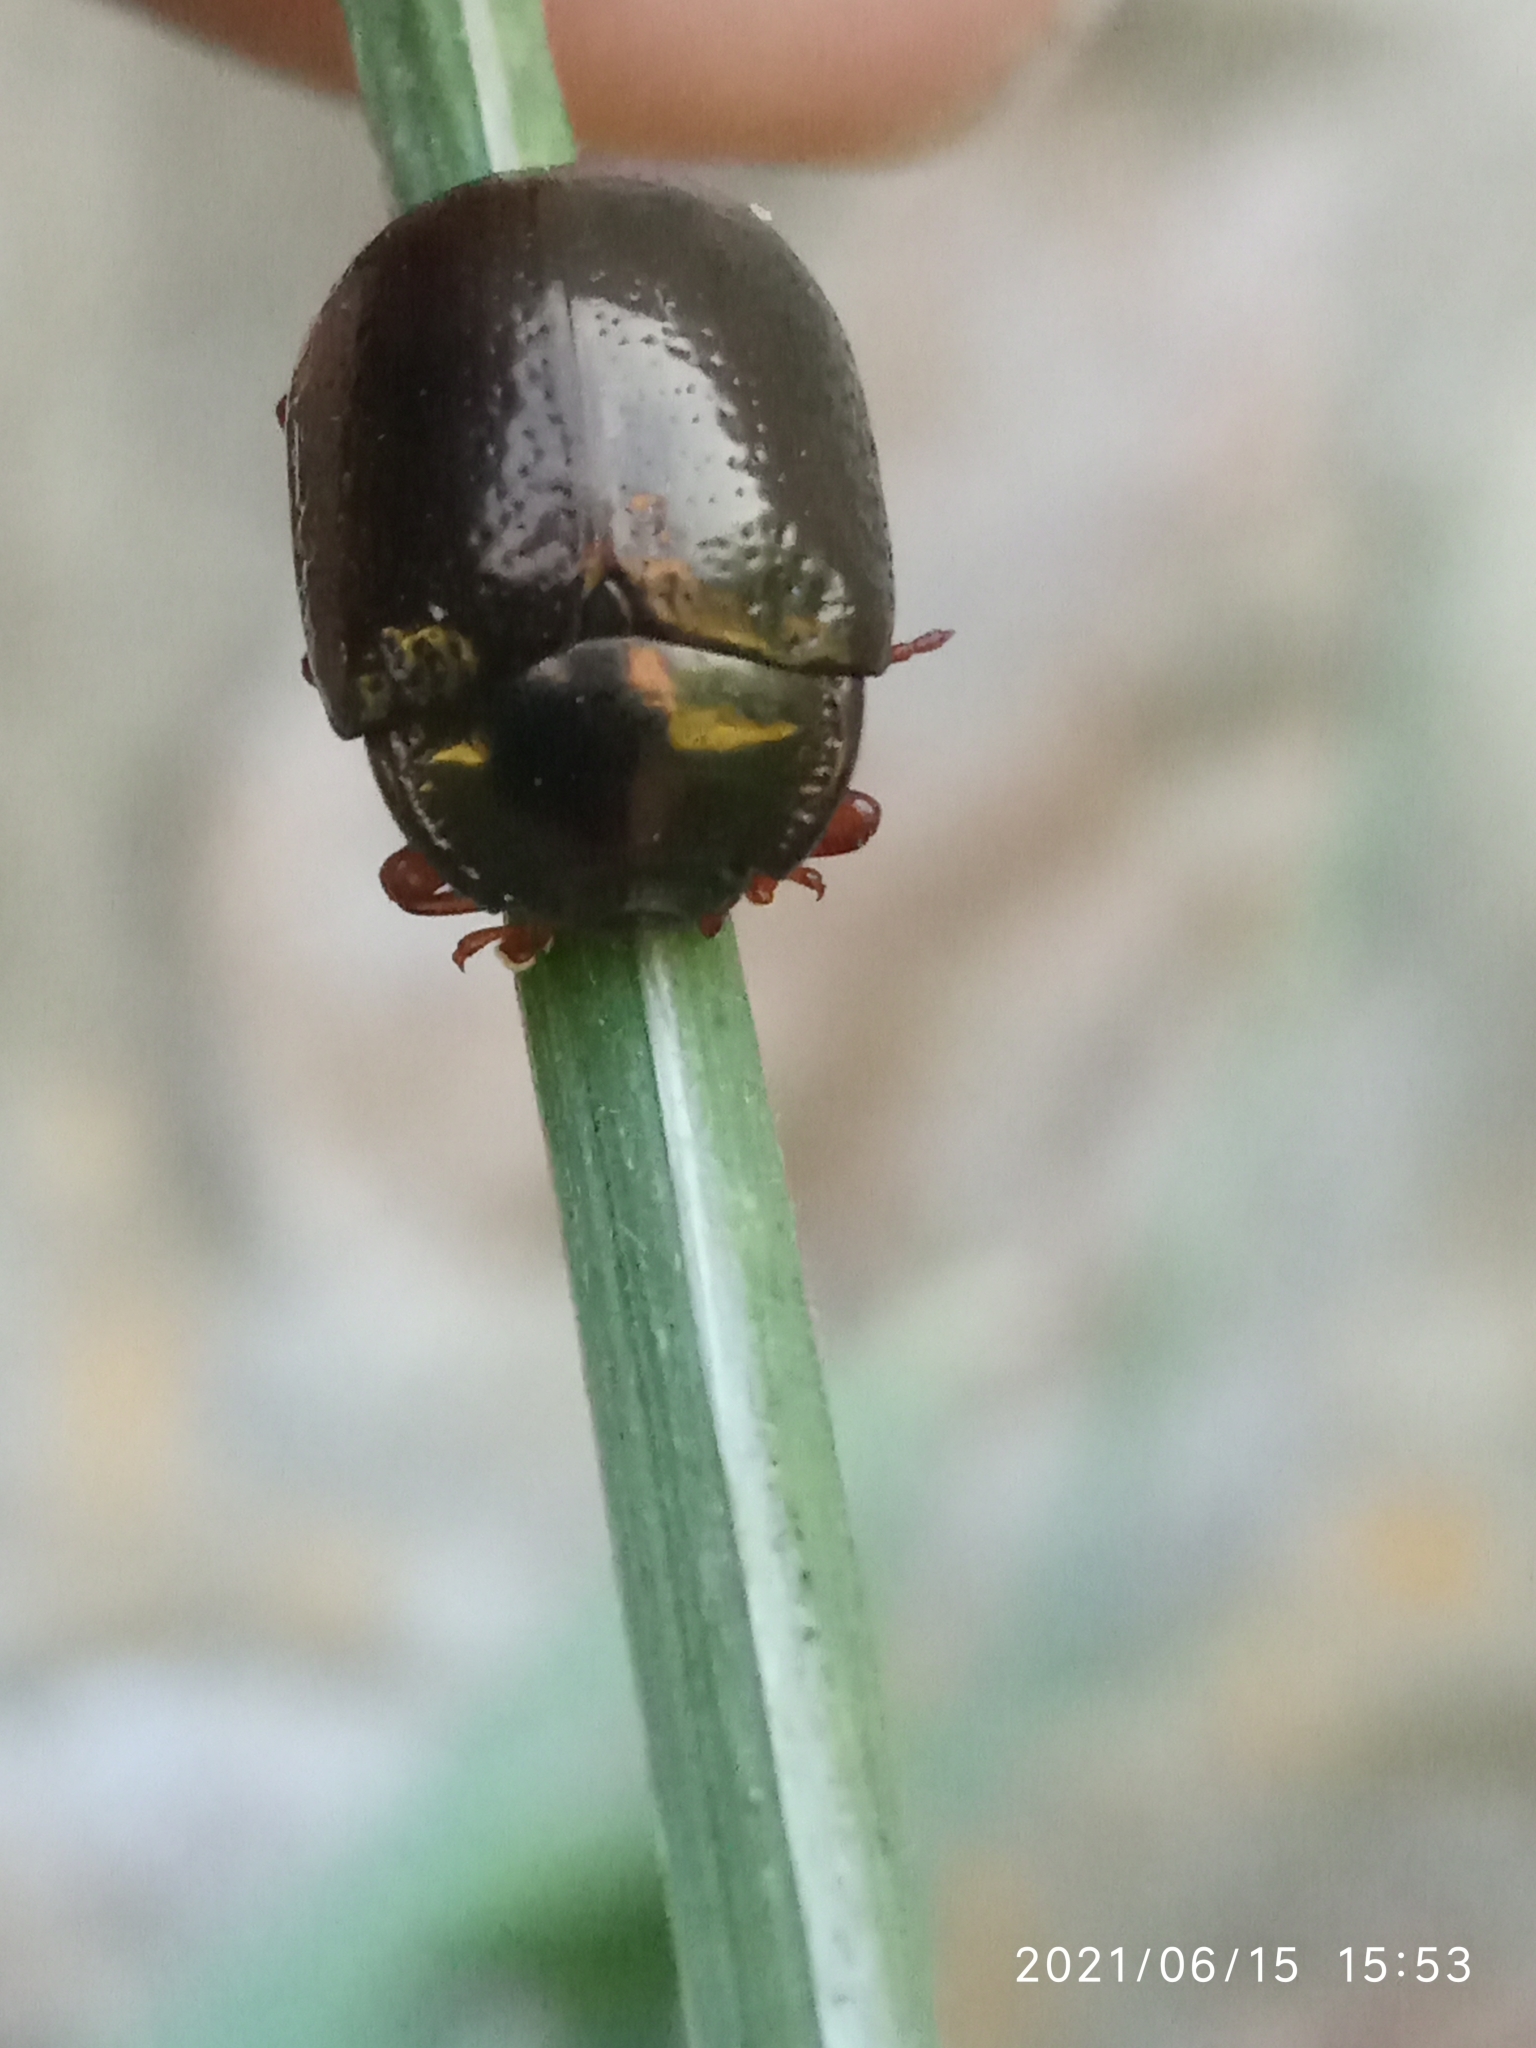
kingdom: Animalia
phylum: Arthropoda
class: Insecta
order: Coleoptera
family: Chrysomelidae
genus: Chrysolina
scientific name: Chrysolina bankii
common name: Leaf beetle
